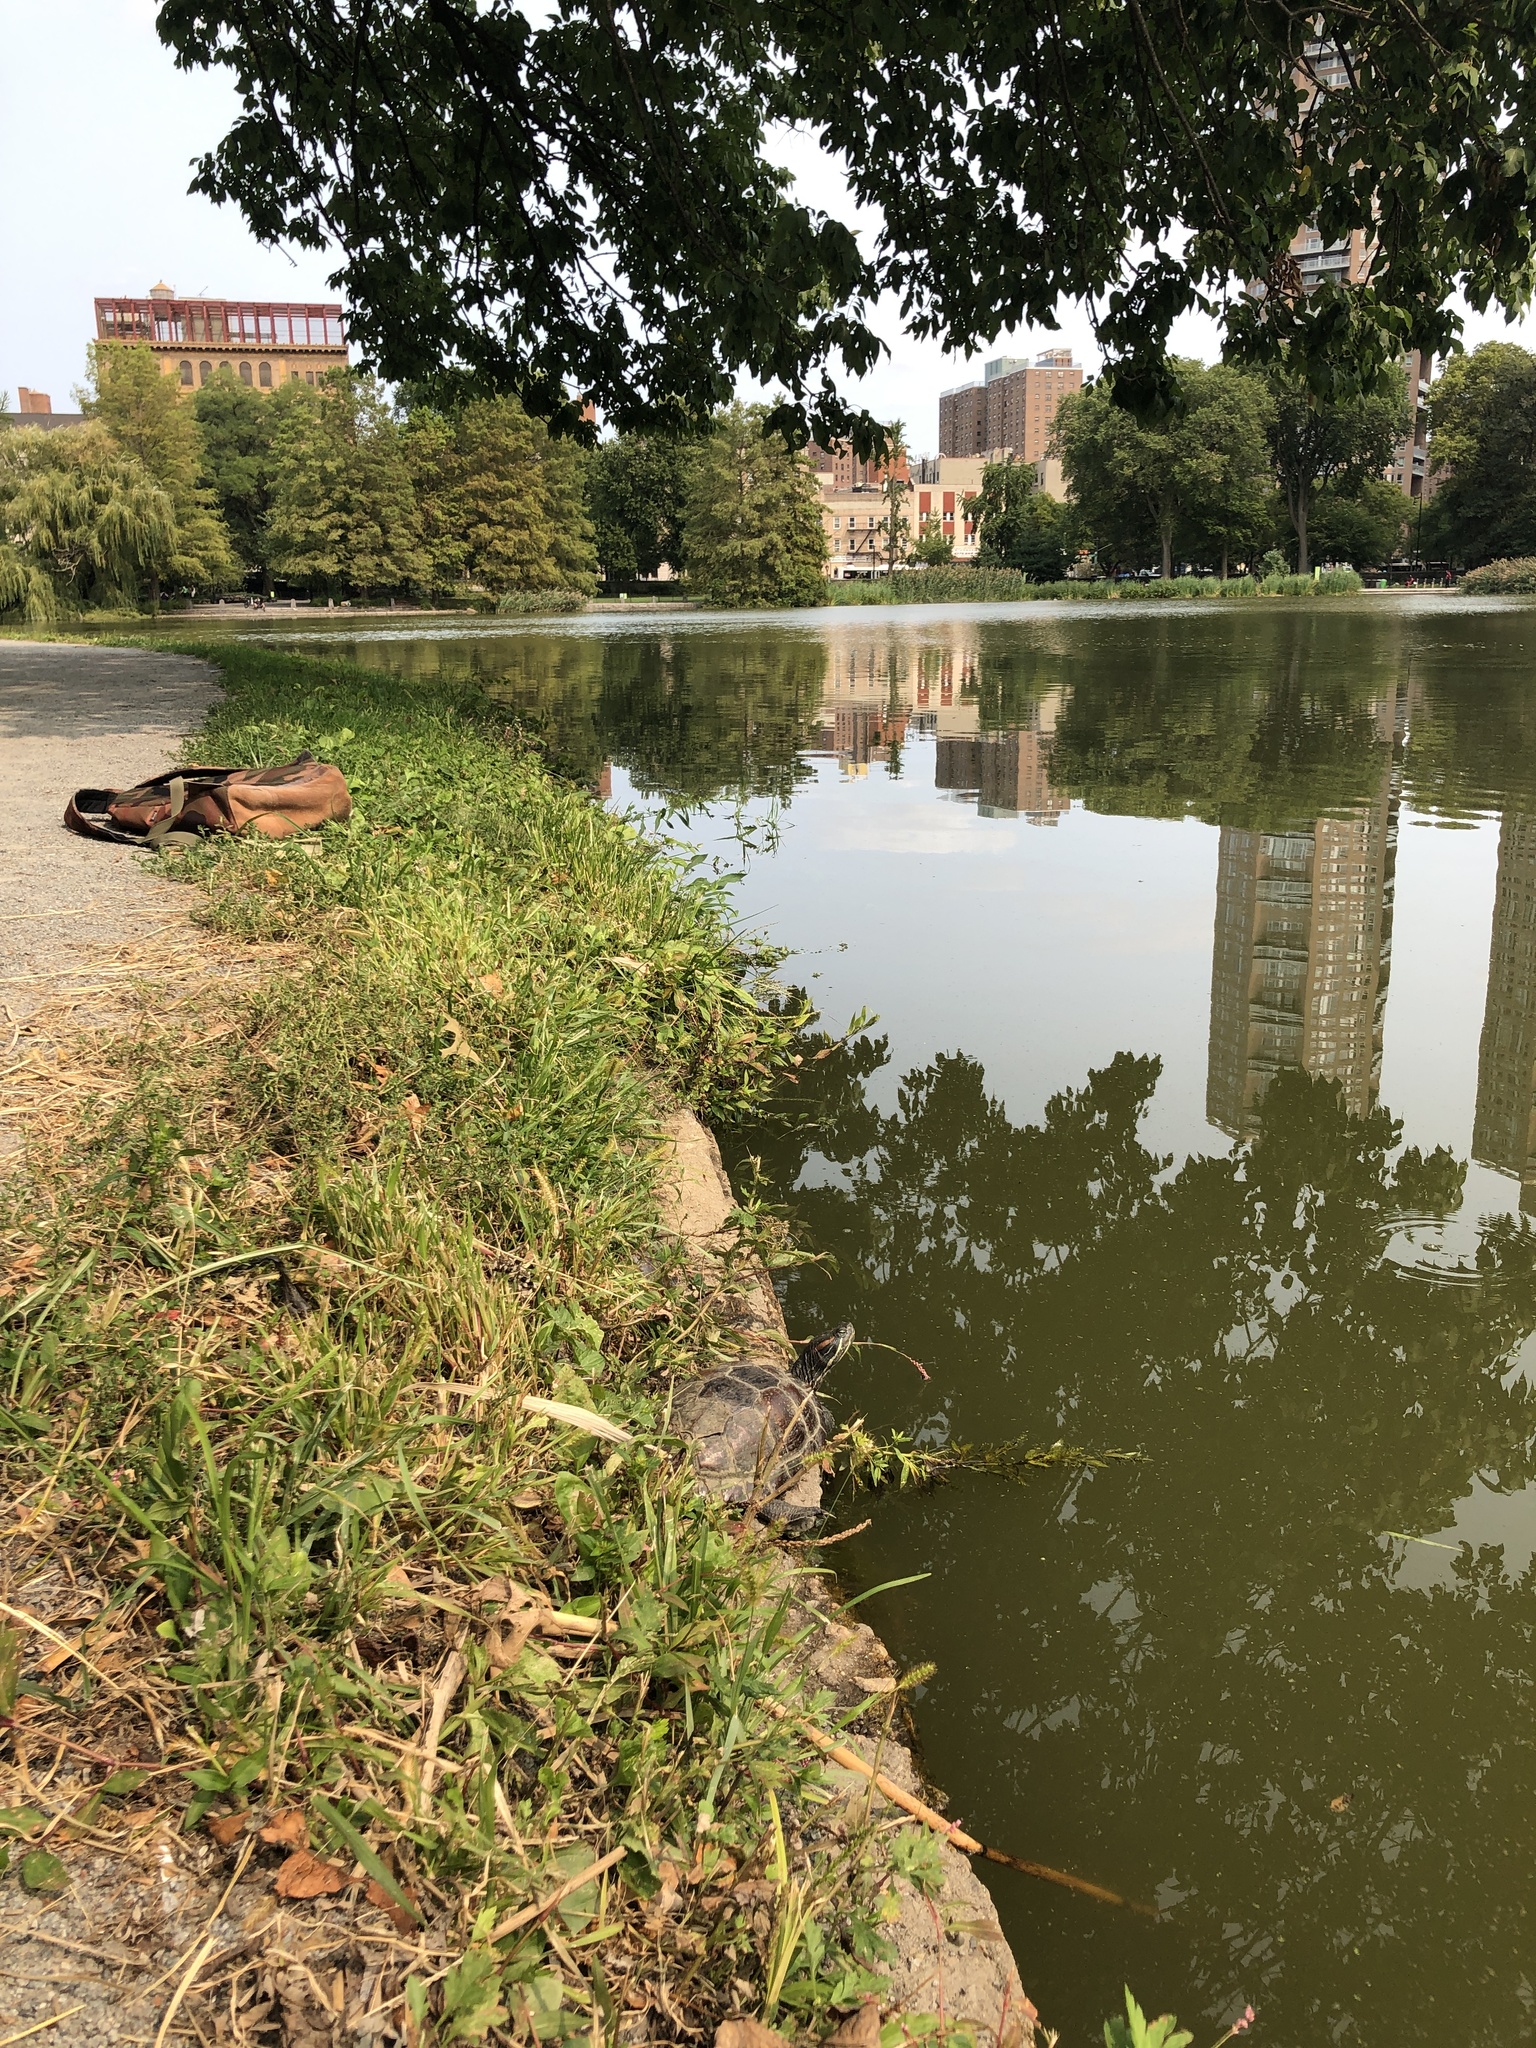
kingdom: Animalia
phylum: Chordata
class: Testudines
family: Emydidae
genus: Trachemys
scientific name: Trachemys scripta
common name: Slider
